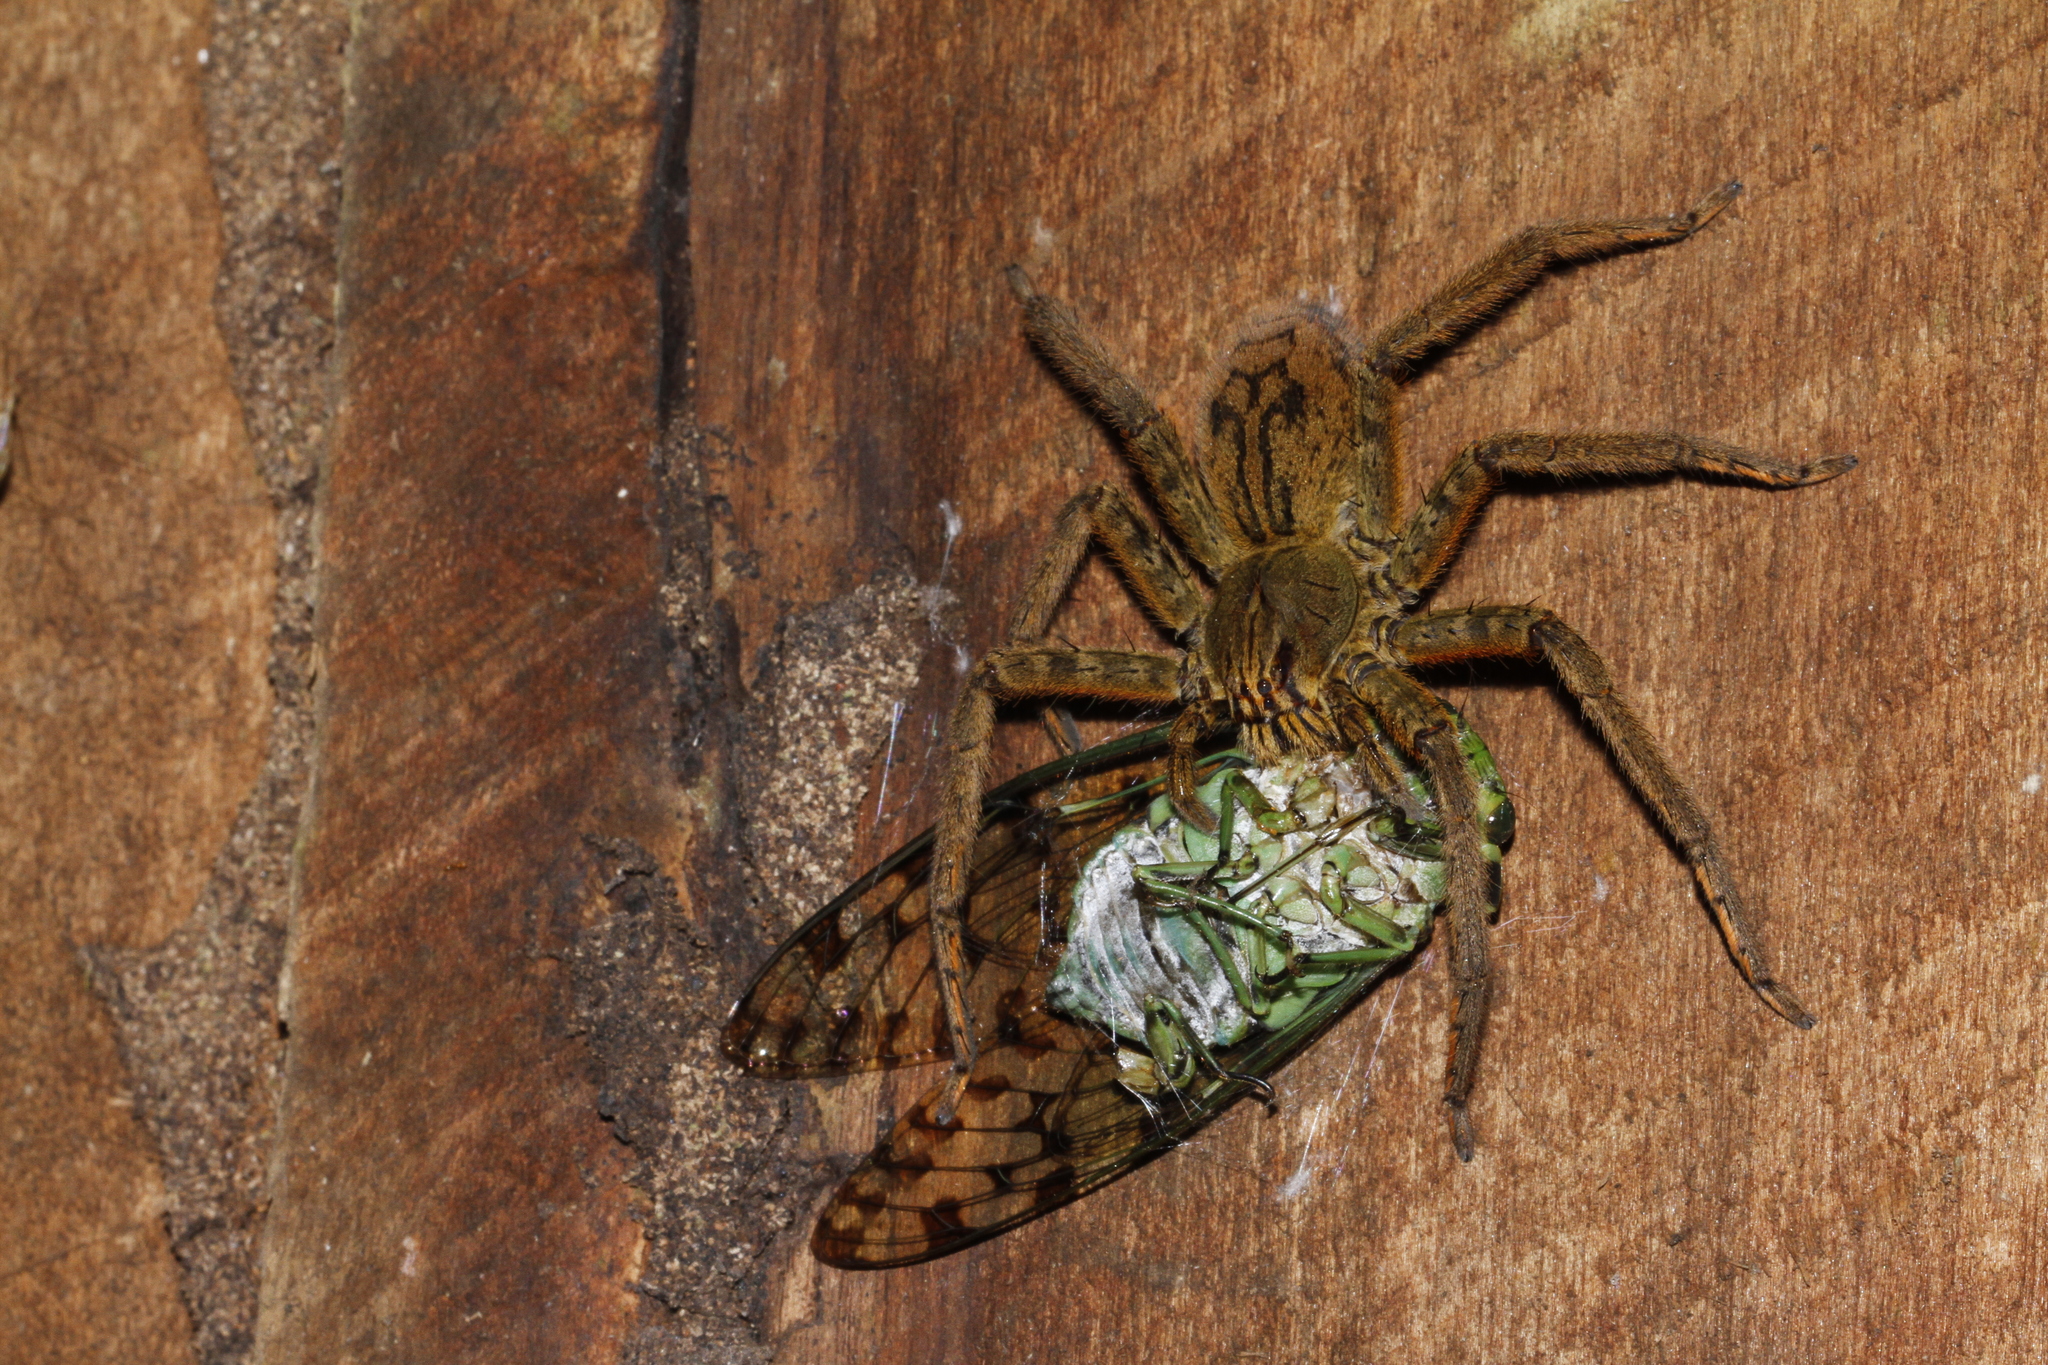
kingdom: Animalia
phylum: Arthropoda
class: Arachnida
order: Araneae
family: Trechaleidae
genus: Cupiennius
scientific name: Cupiennius coccineus
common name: Wandering spiders
